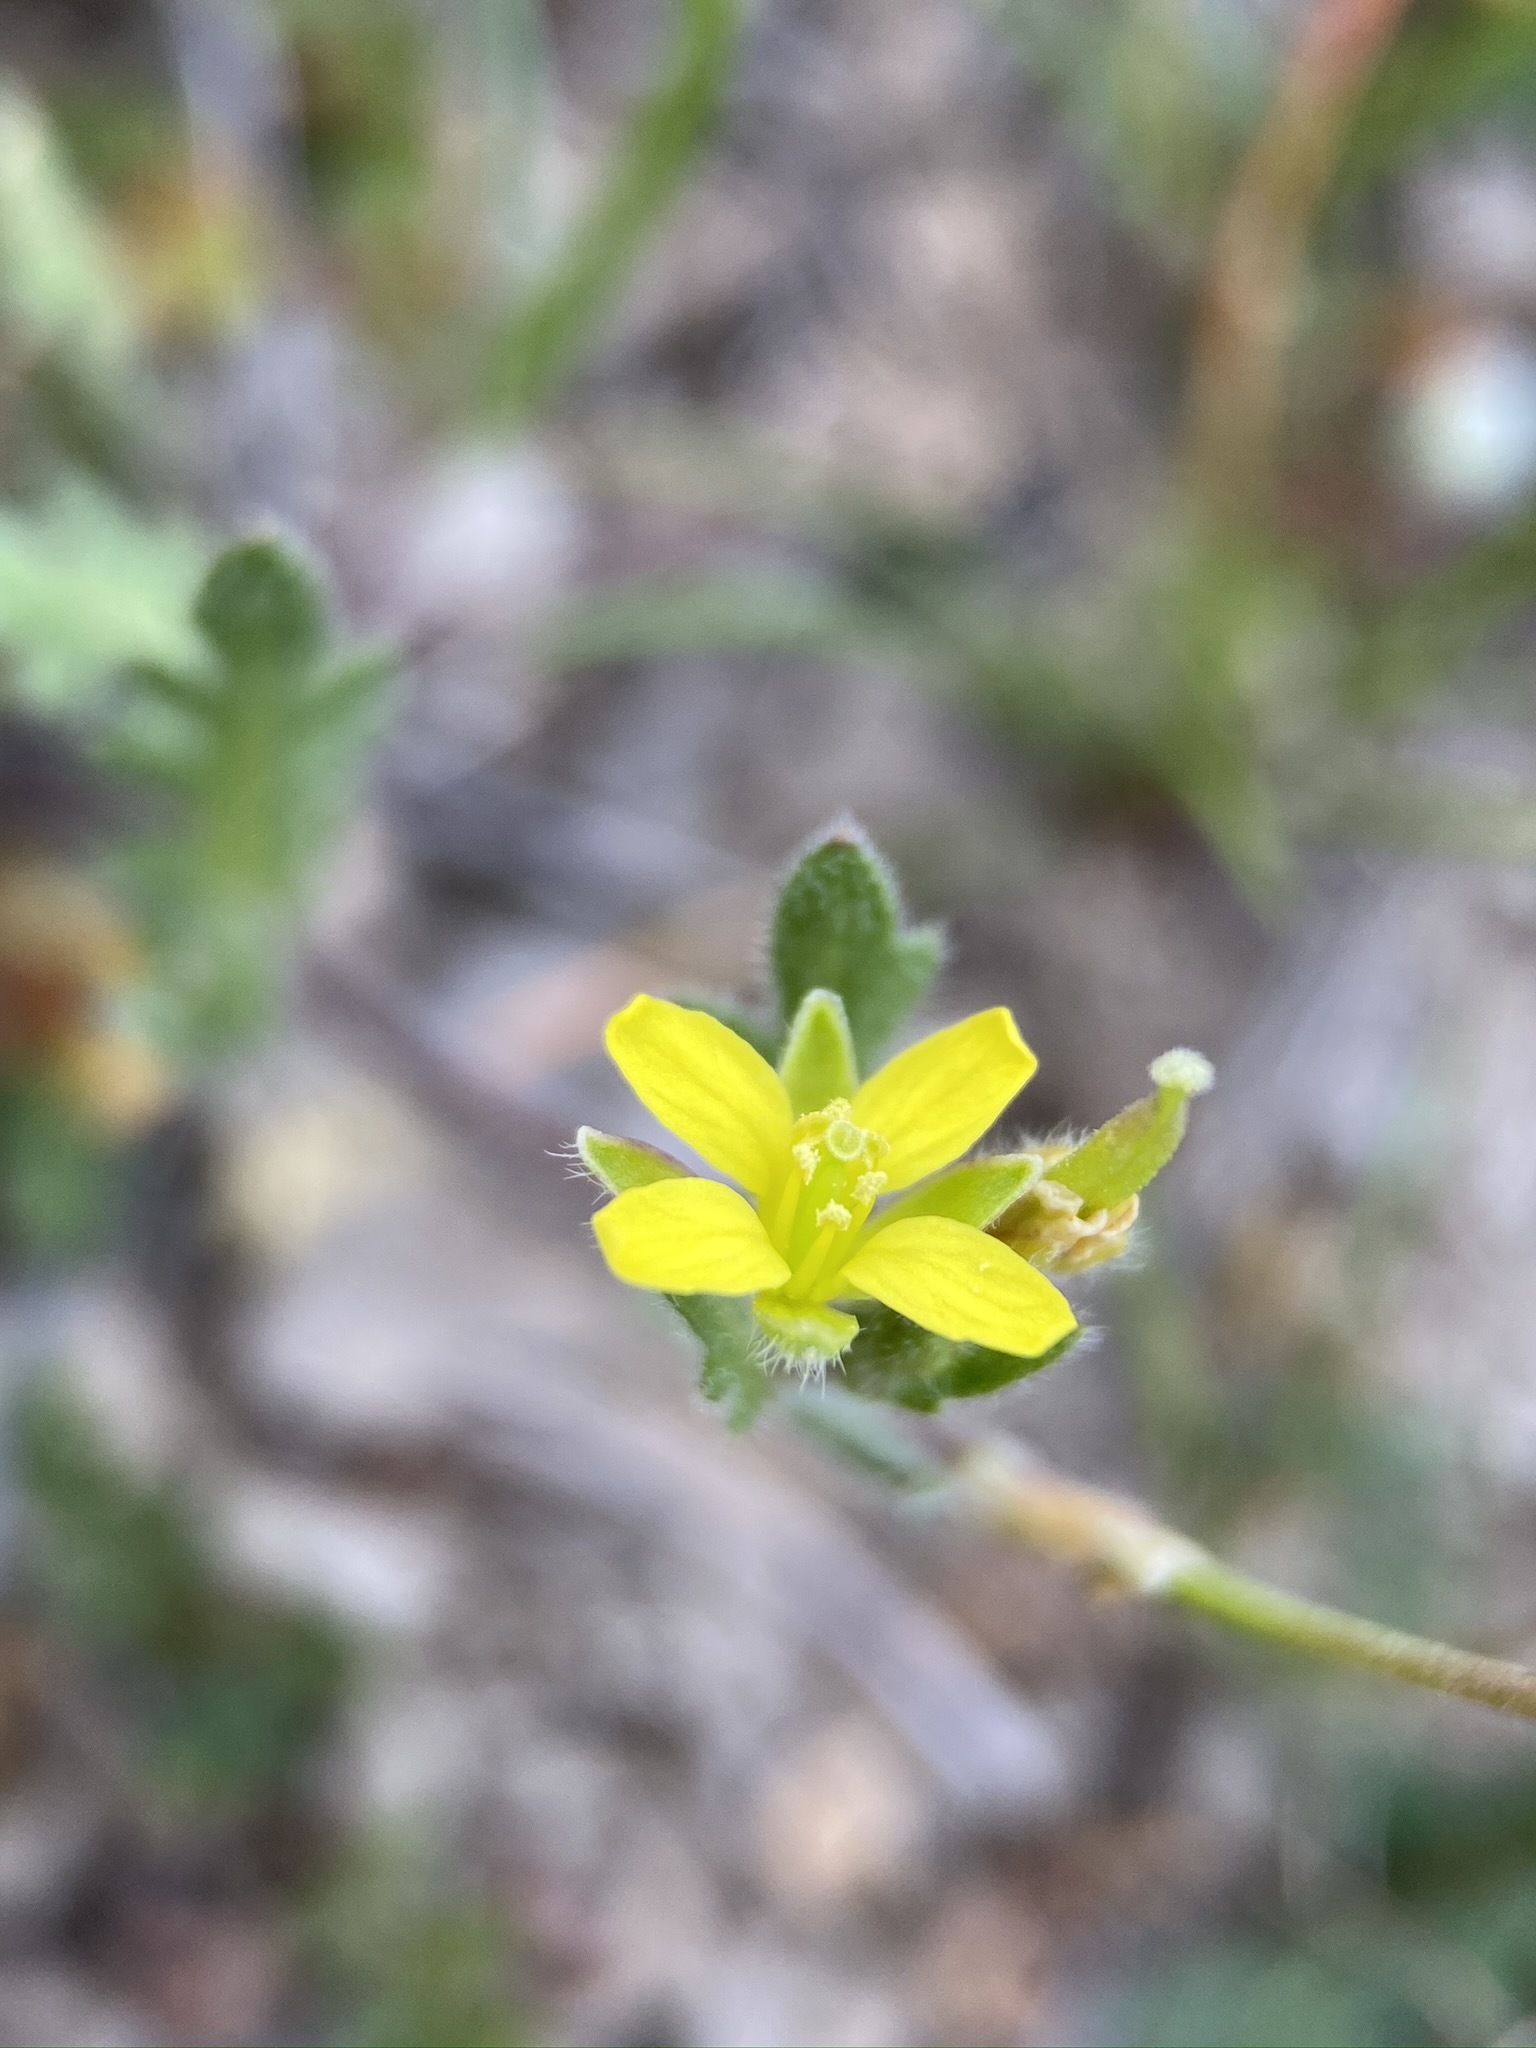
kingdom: Plantae
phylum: Tracheophyta
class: Magnoliopsida
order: Brassicales
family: Brassicaceae
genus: Tropidocarpum
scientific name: Tropidocarpum gracile
